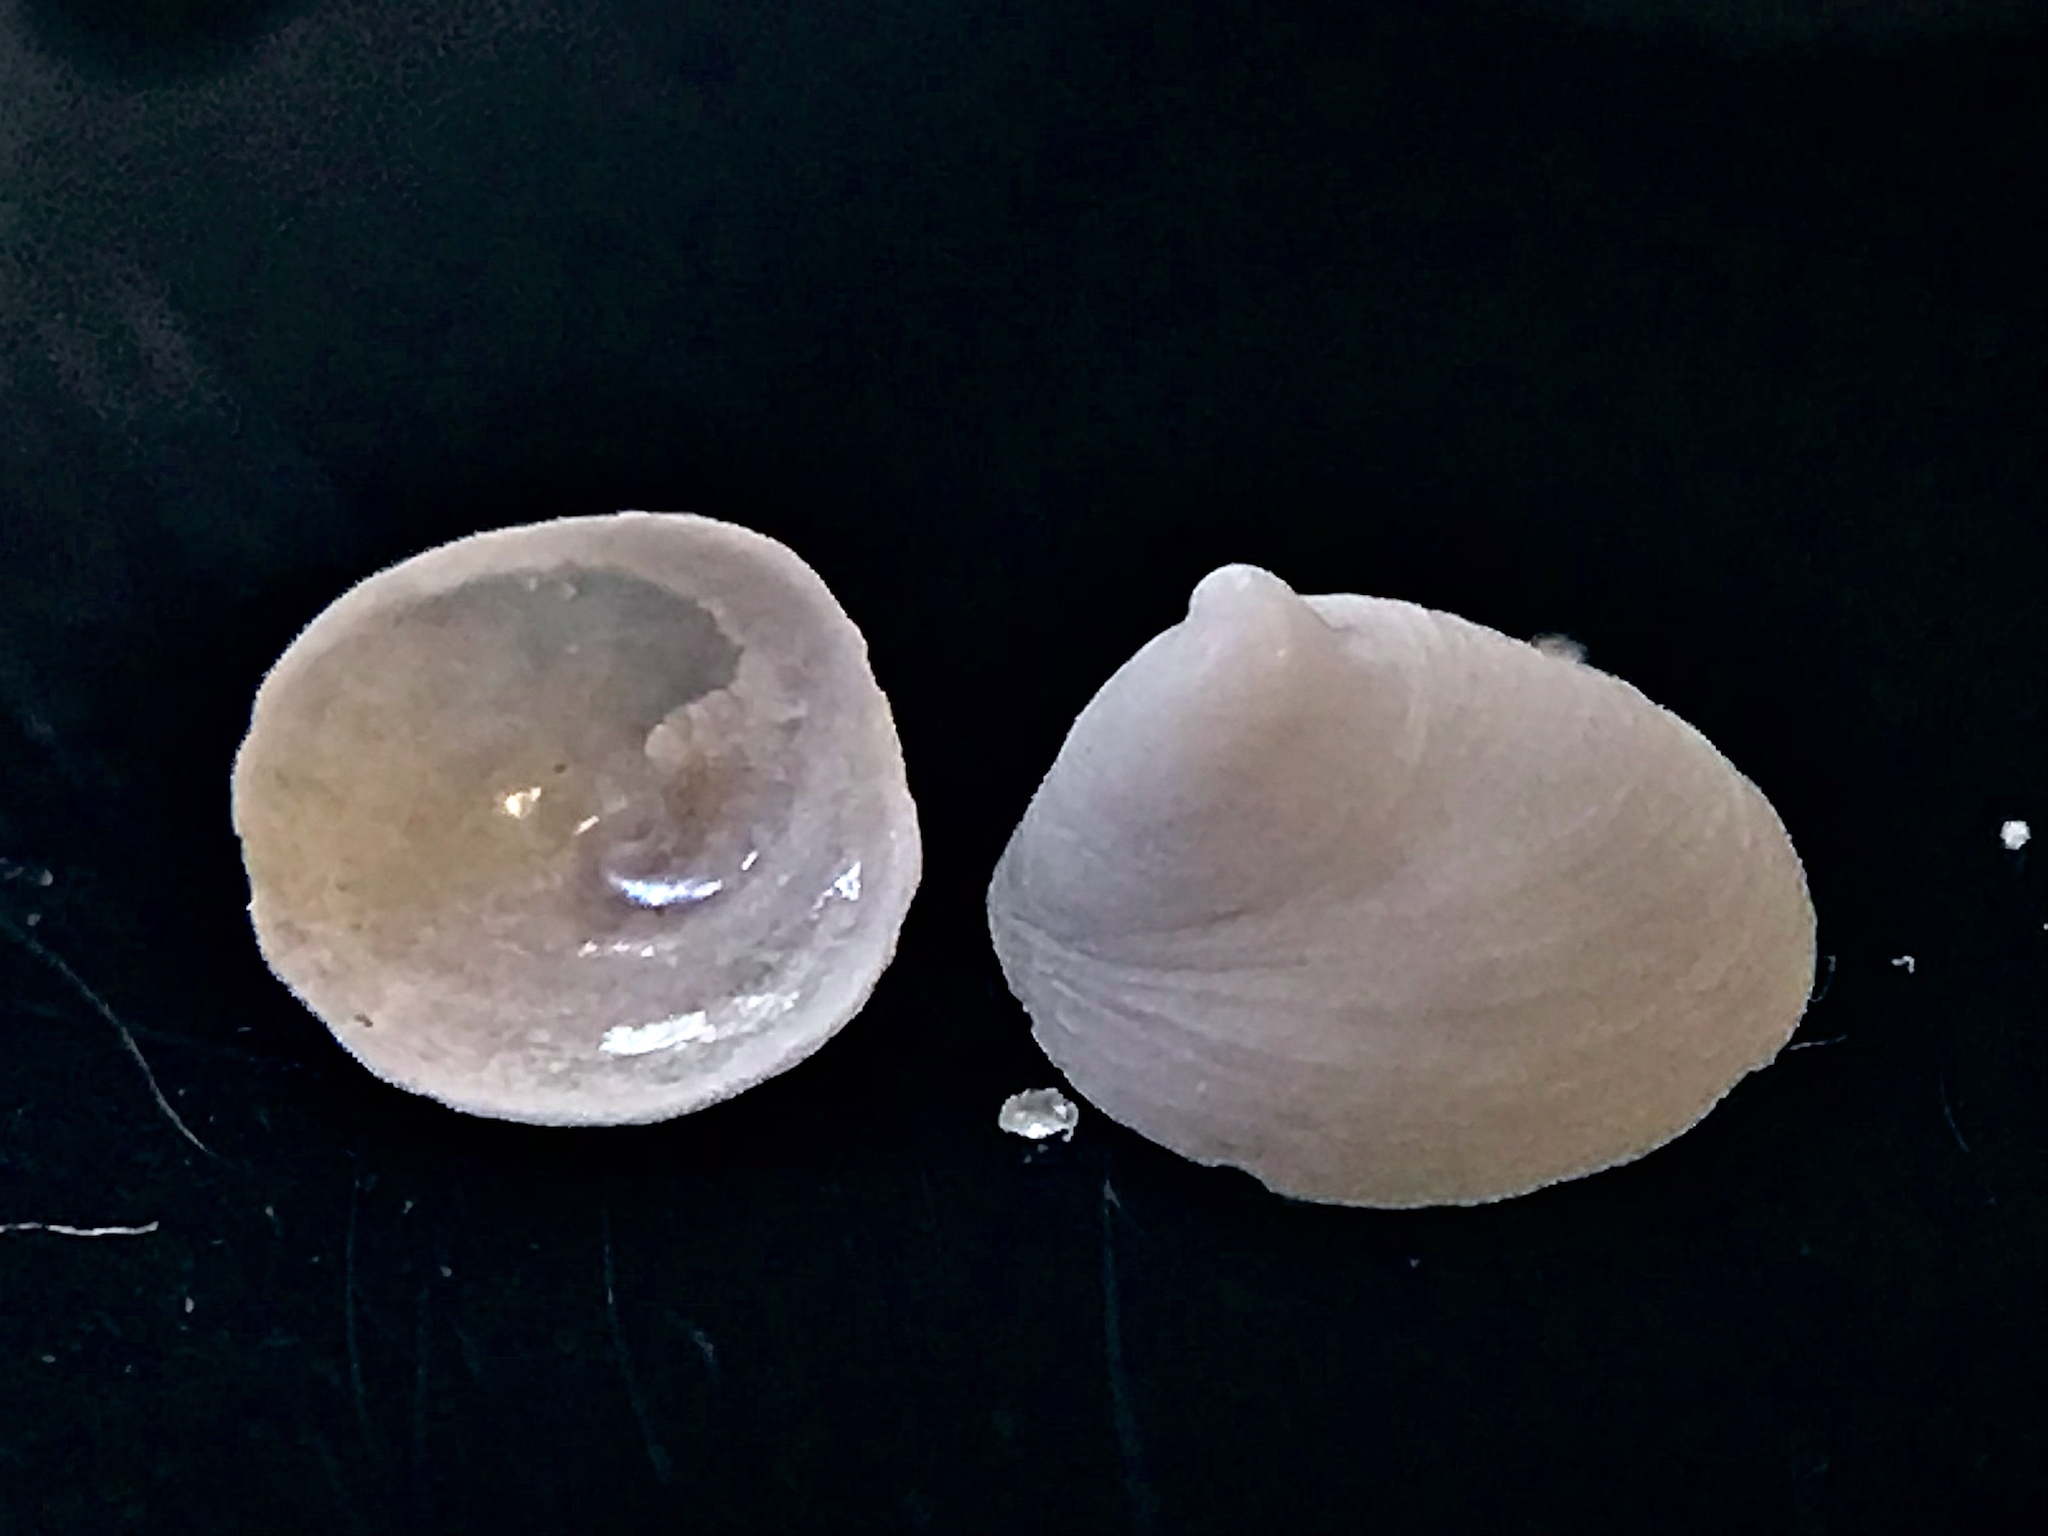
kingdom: Animalia
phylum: Mollusca
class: Gastropoda
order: Littorinimorpha
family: Calyptraeidae
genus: Calyptraea
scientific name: Calyptraea centralis
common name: Circular chinese hat
